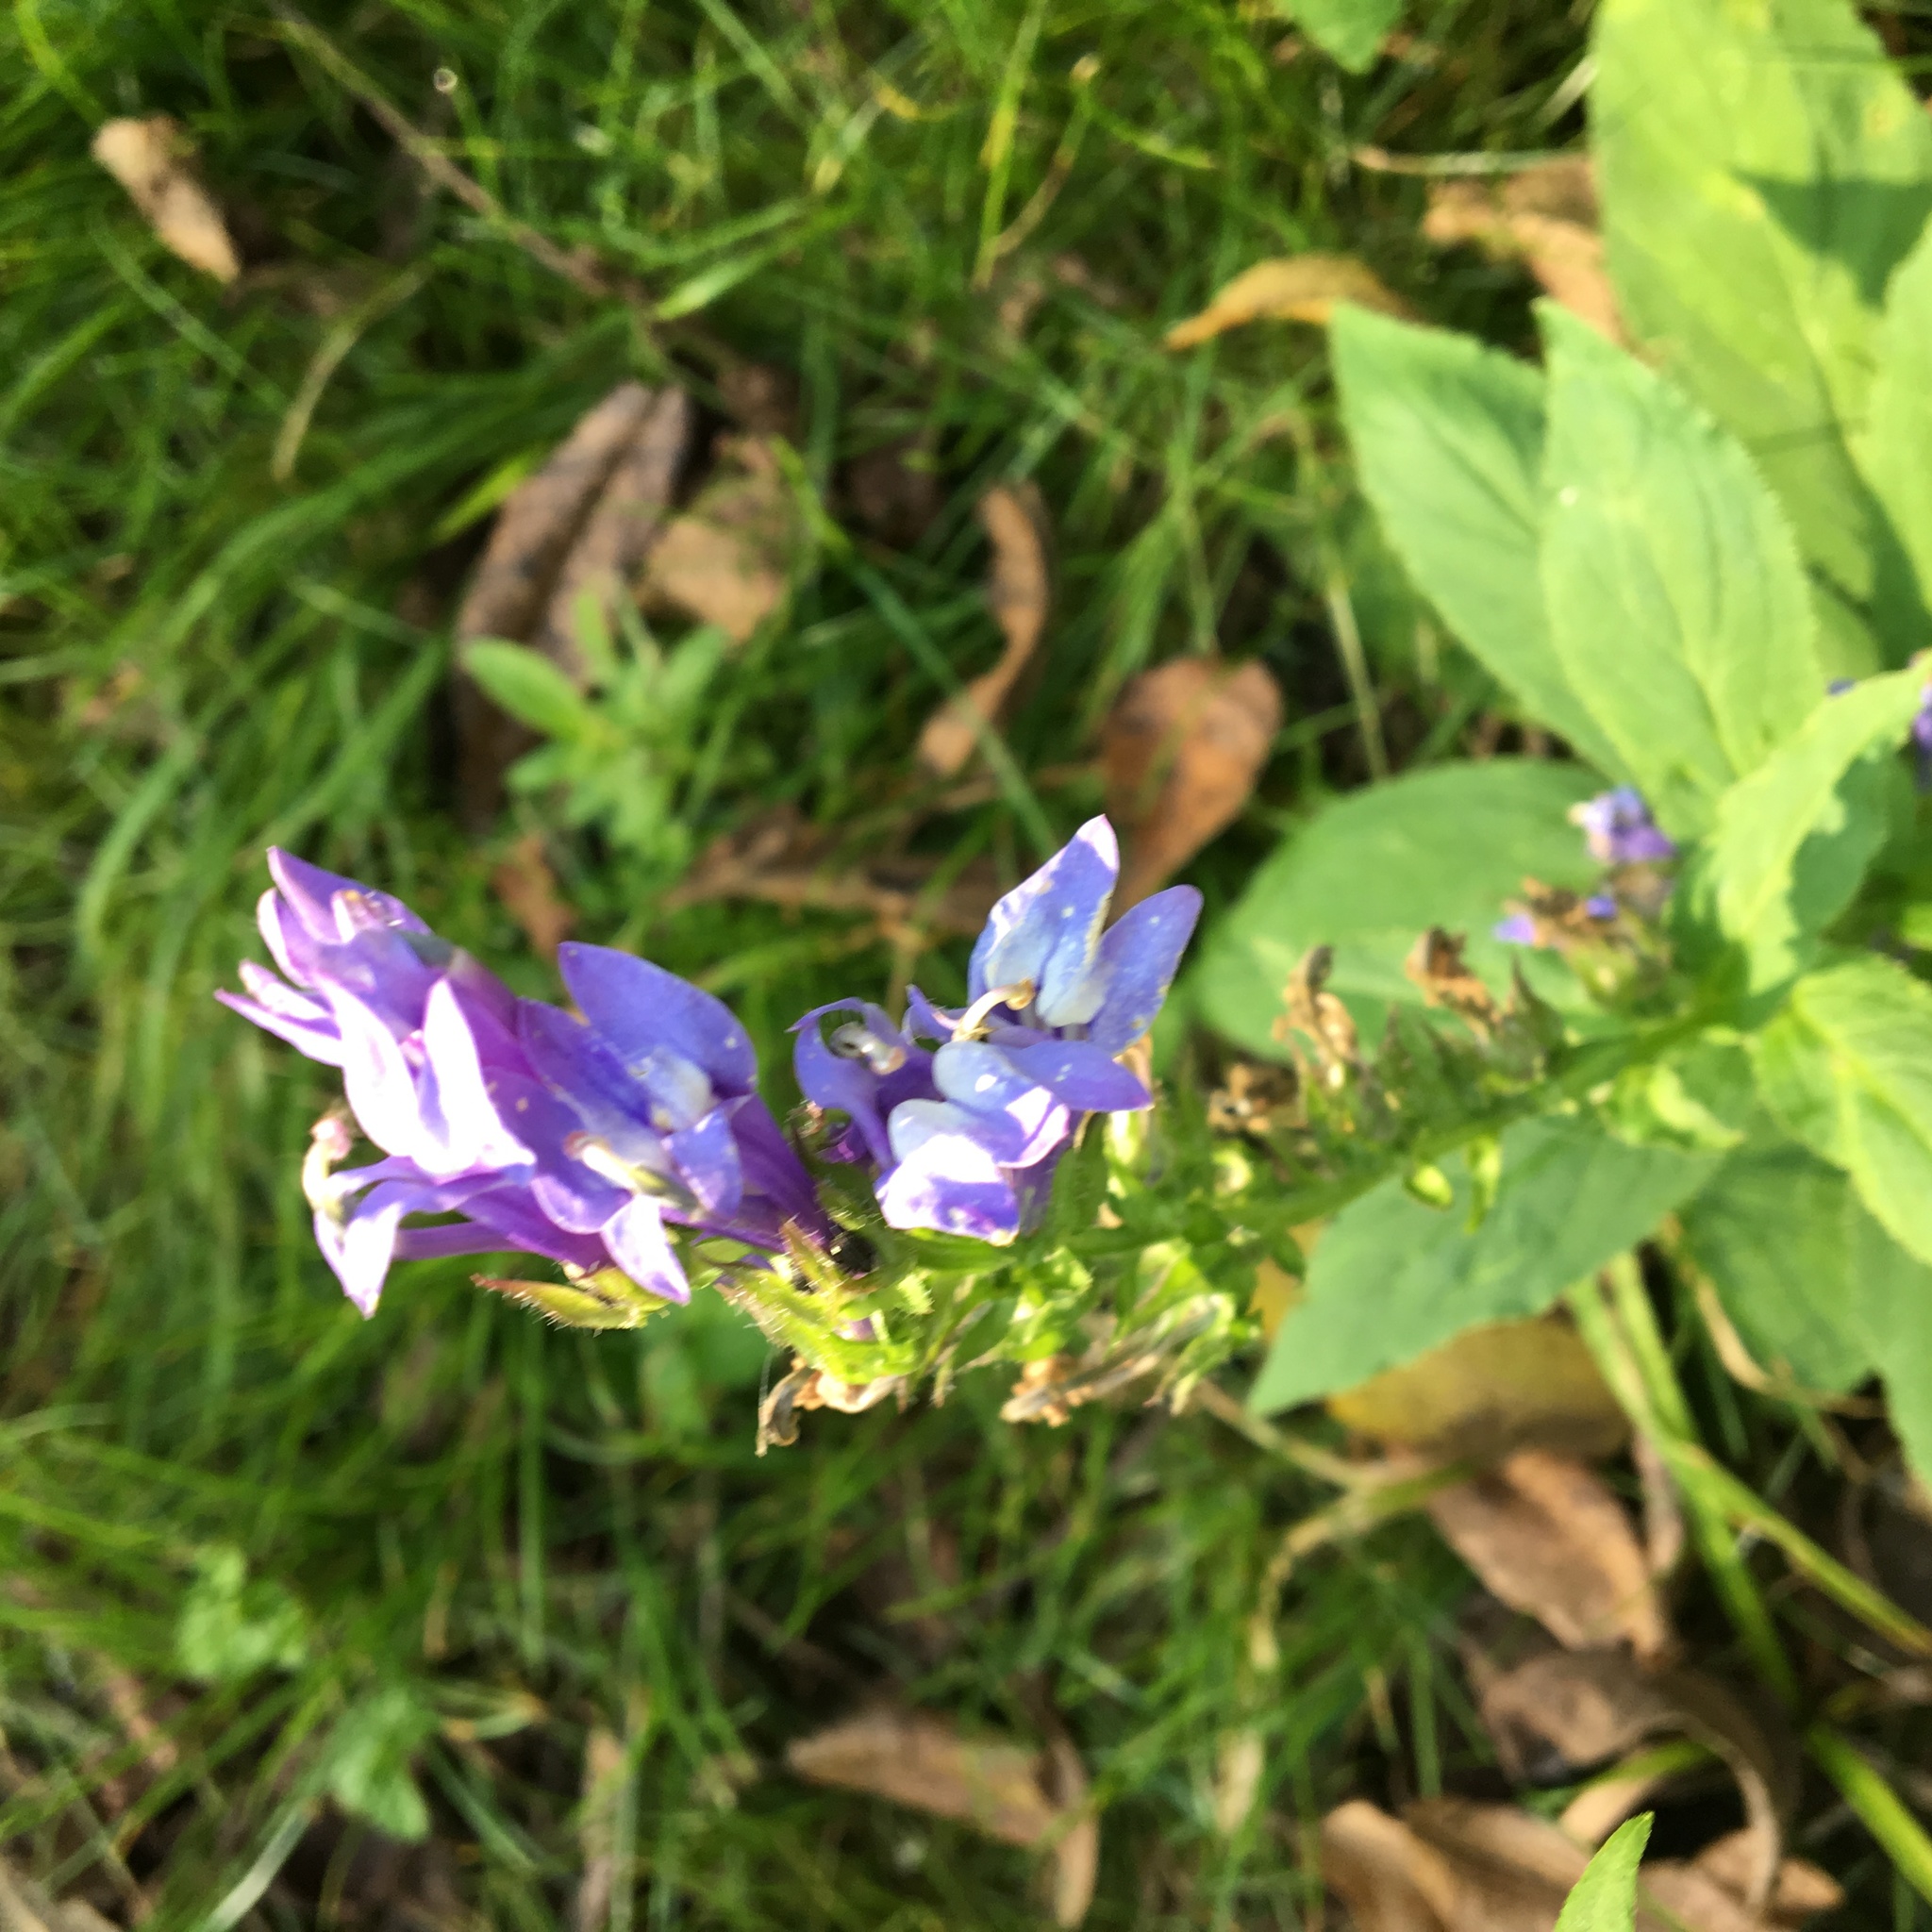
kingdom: Plantae
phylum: Tracheophyta
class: Magnoliopsida
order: Asterales
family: Campanulaceae
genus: Lobelia
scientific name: Lobelia siphilitica
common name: Great lobelia
